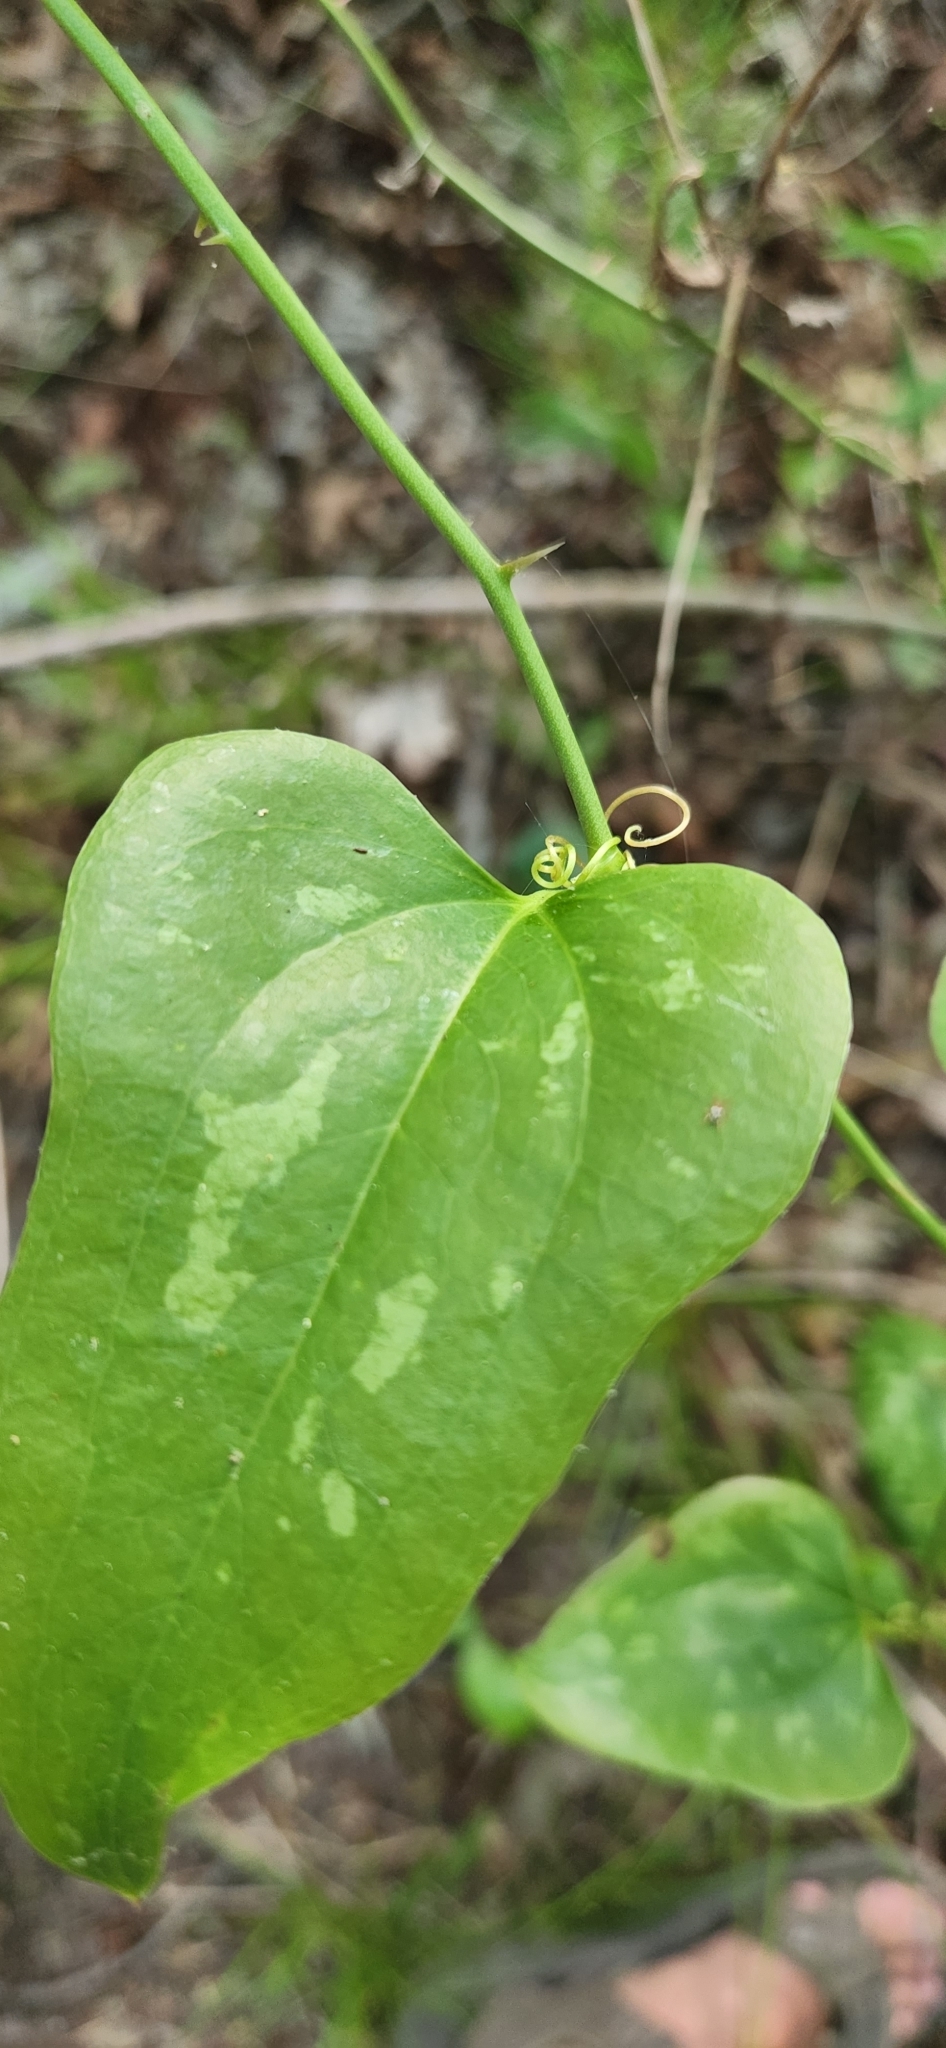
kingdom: Plantae
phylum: Tracheophyta
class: Liliopsida
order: Liliales
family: Smilacaceae
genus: Smilax
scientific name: Smilax bona-nox
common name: Catbrier
